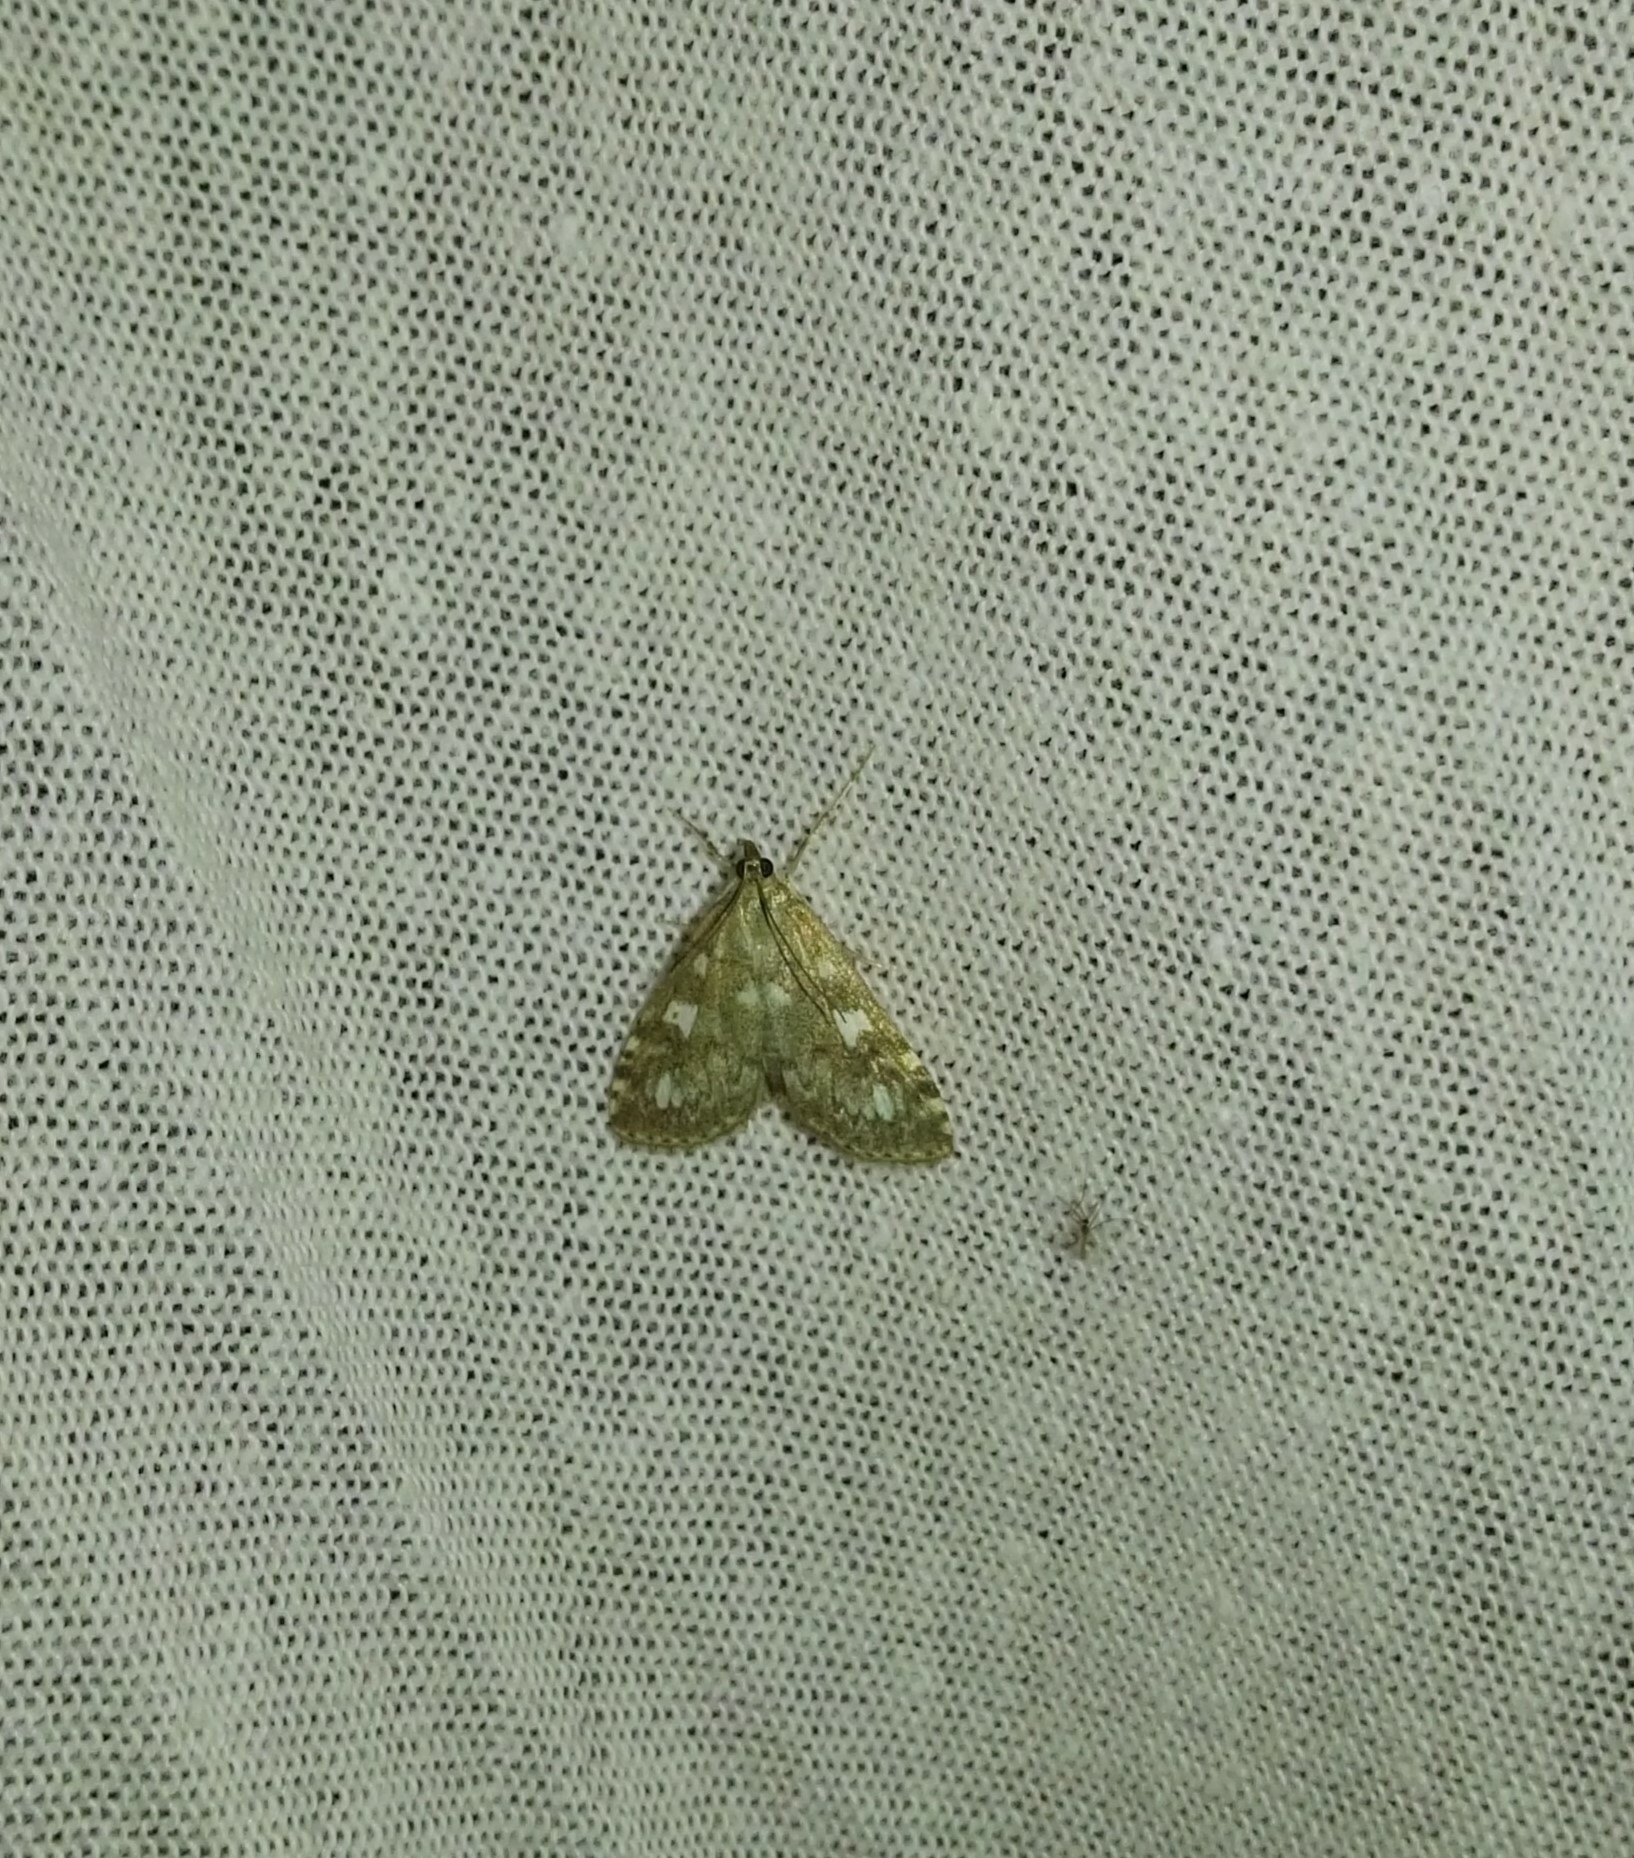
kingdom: Animalia
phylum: Arthropoda
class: Insecta
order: Lepidoptera
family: Crambidae
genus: Udea
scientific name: Udea olivalis
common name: Olive pearl
